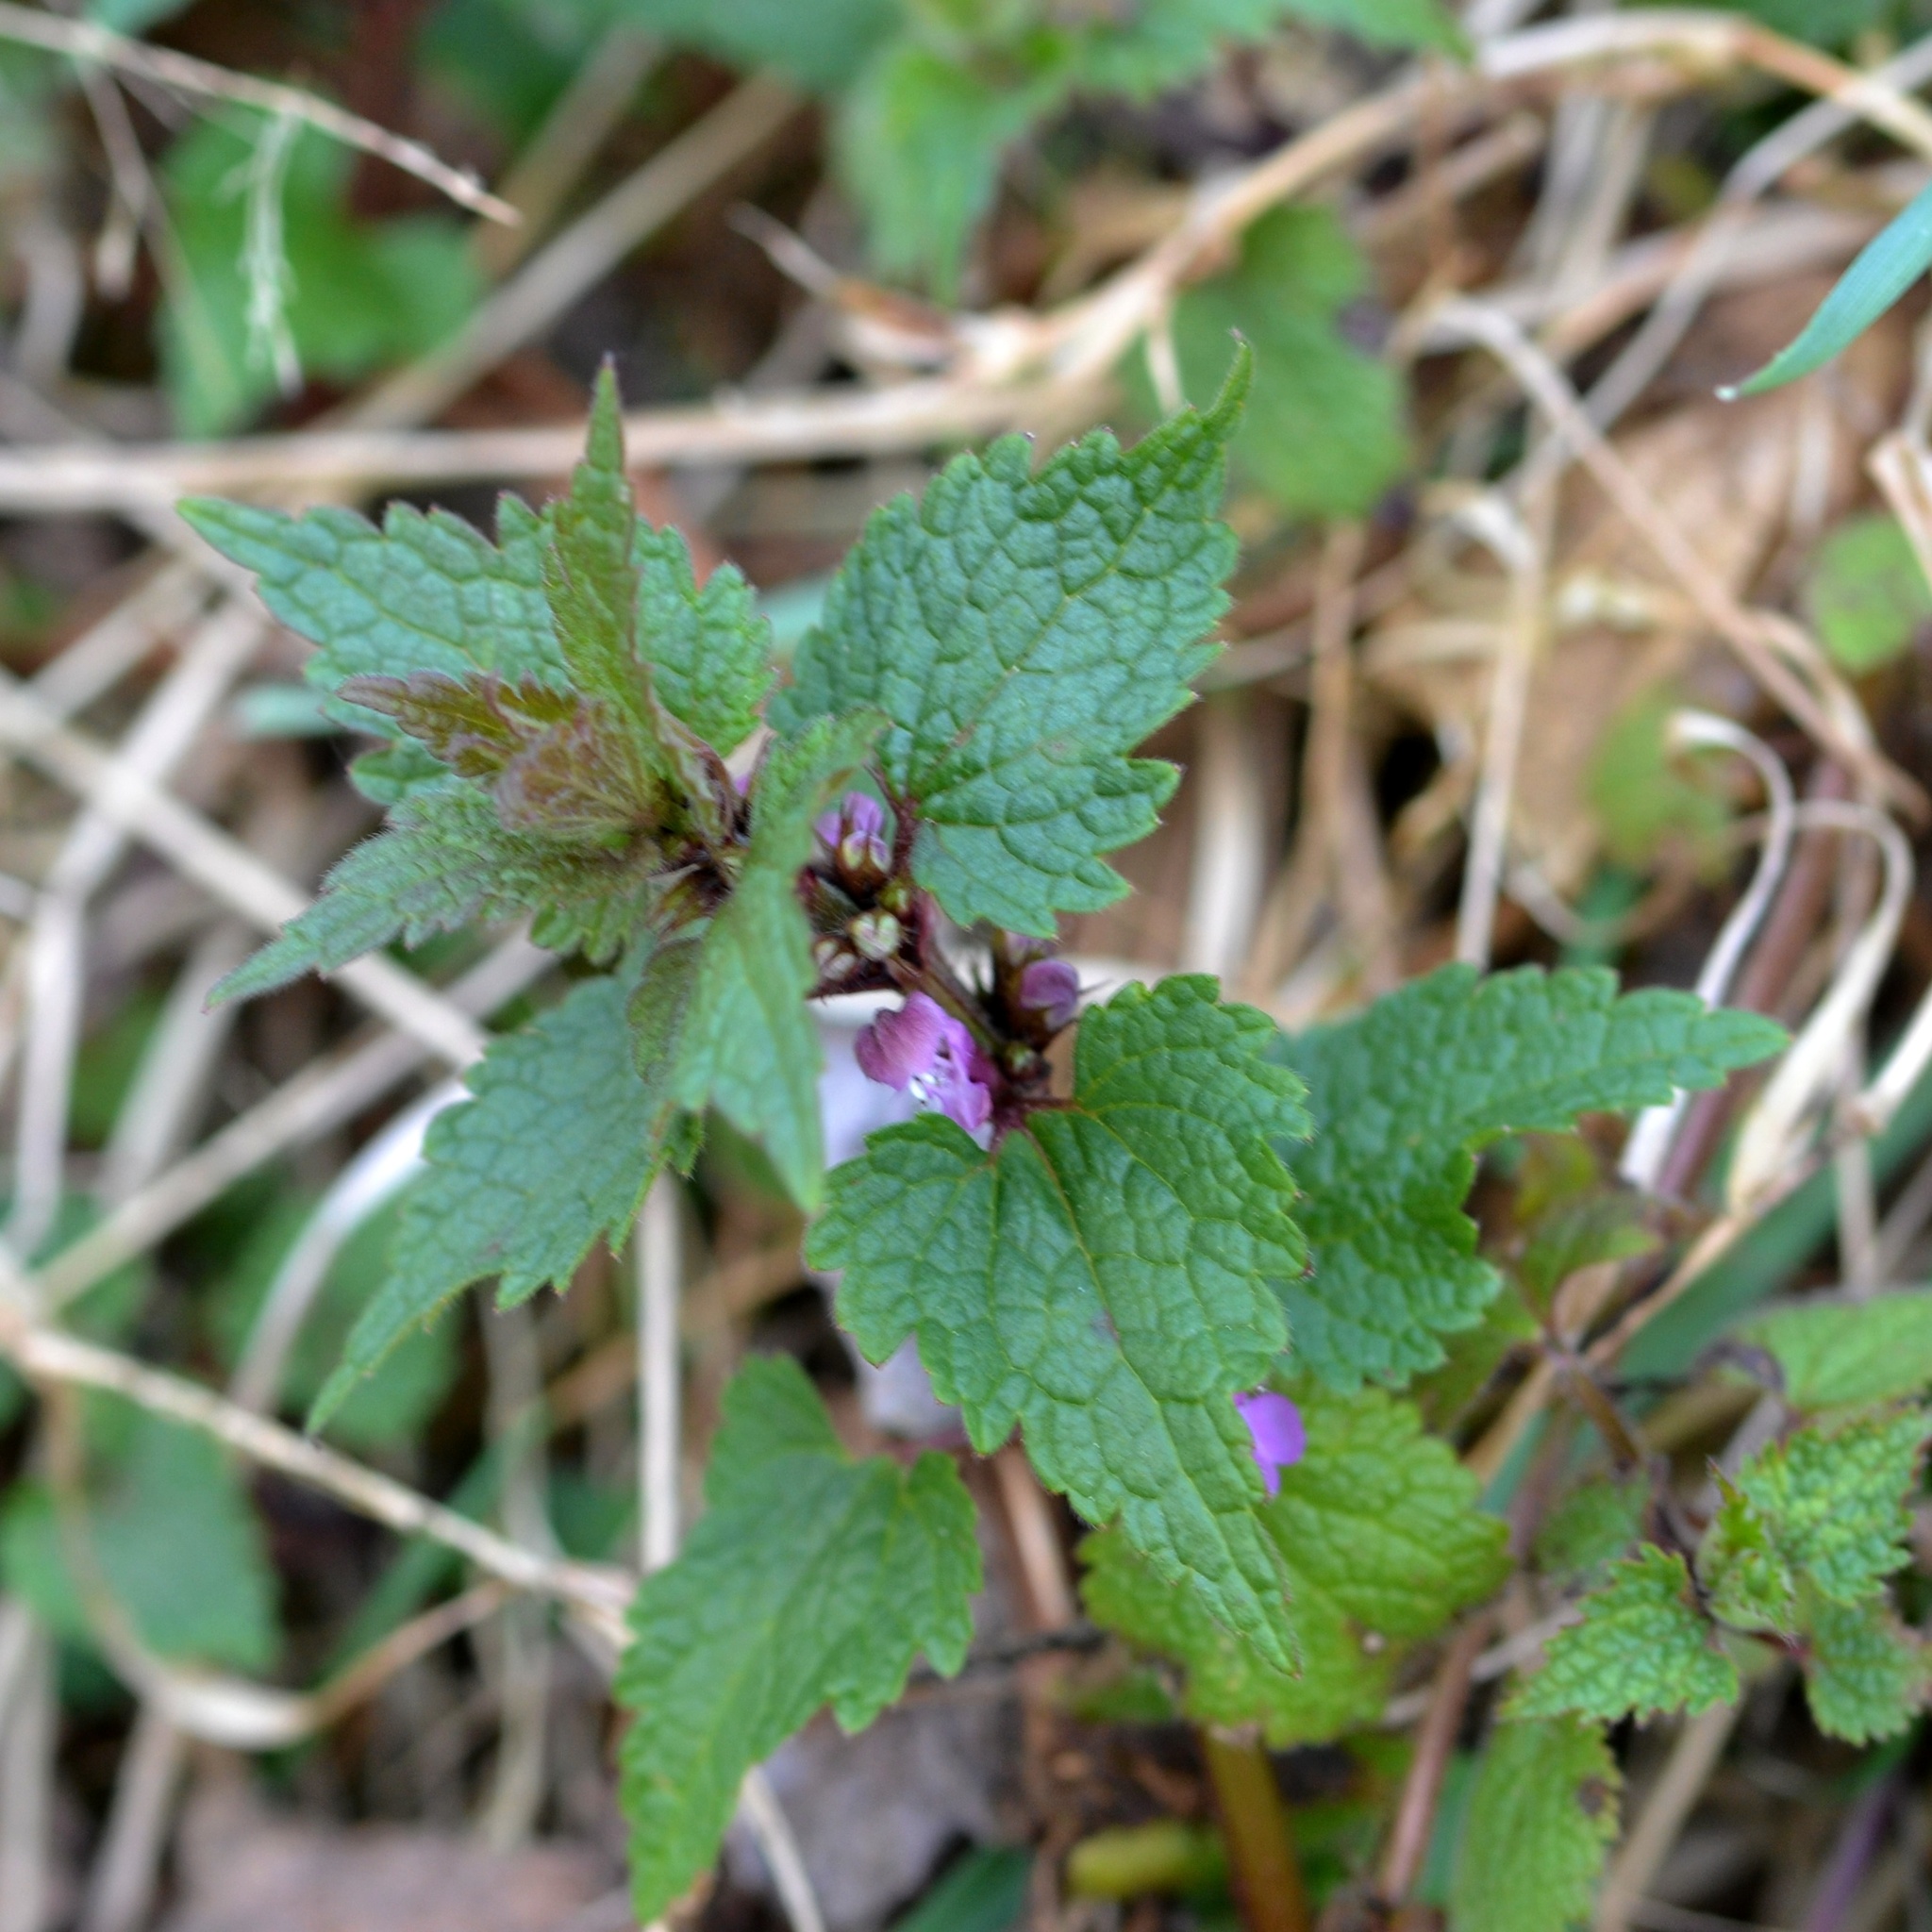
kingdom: Plantae
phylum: Tracheophyta
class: Magnoliopsida
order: Lamiales
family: Lamiaceae
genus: Lamium
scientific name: Lamium maculatum
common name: Spotted dead-nettle
